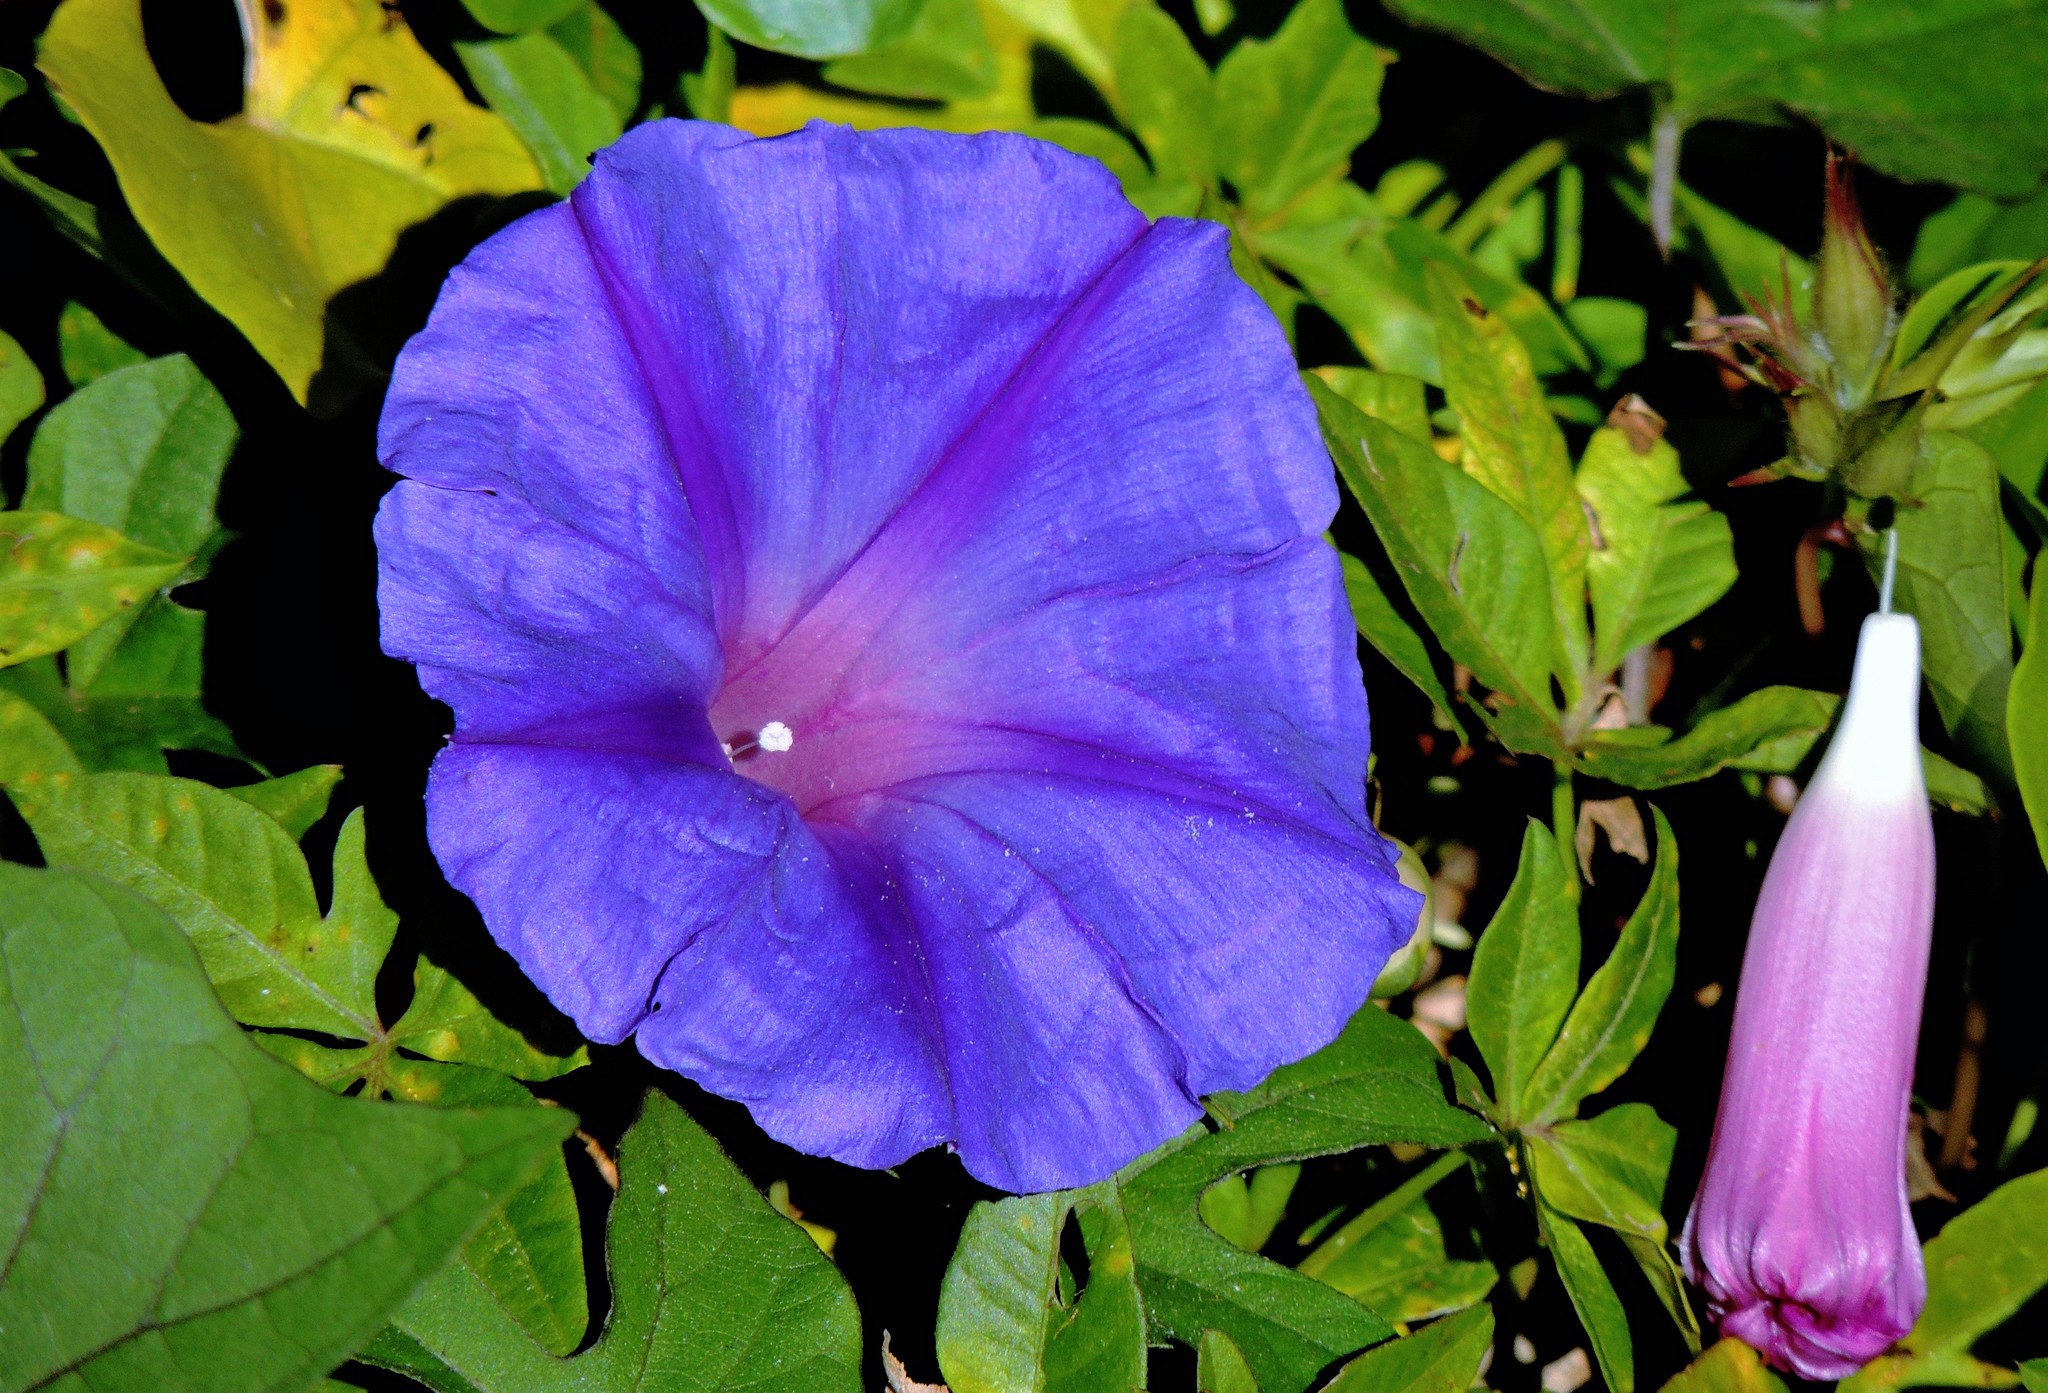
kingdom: Plantae
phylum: Tracheophyta
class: Magnoliopsida
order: Solanales
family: Convolvulaceae
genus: Ipomoea
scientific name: Ipomoea indica
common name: Blue dawnflower
